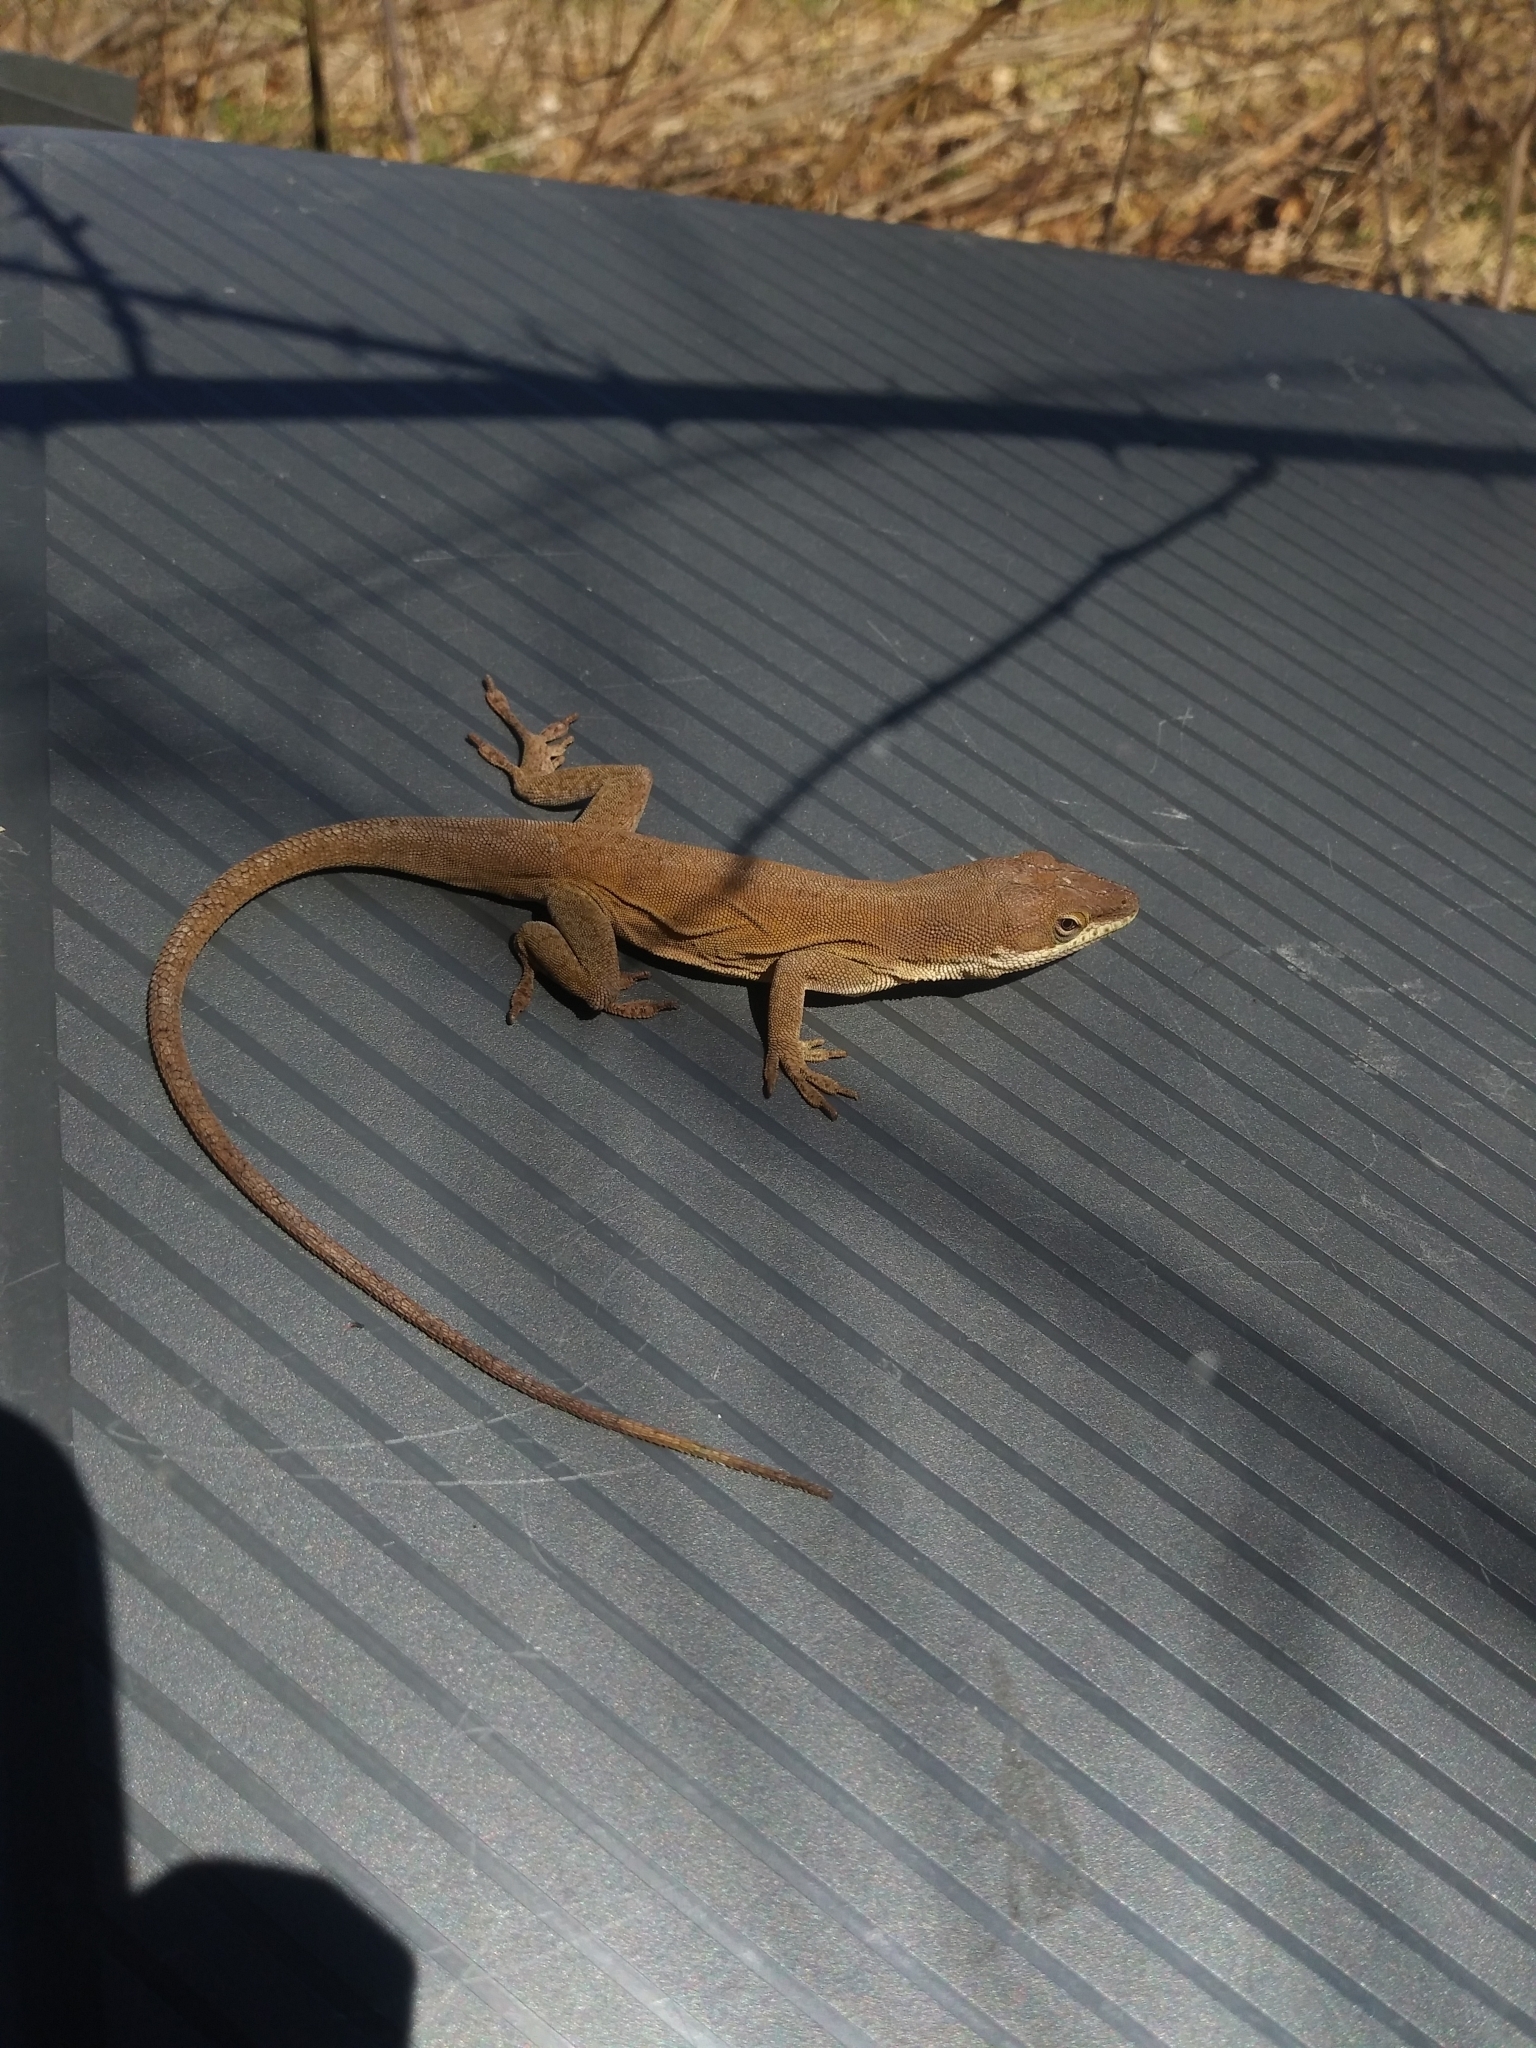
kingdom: Animalia
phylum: Chordata
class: Squamata
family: Dactyloidae
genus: Anolis
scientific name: Anolis carolinensis
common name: Green anole
